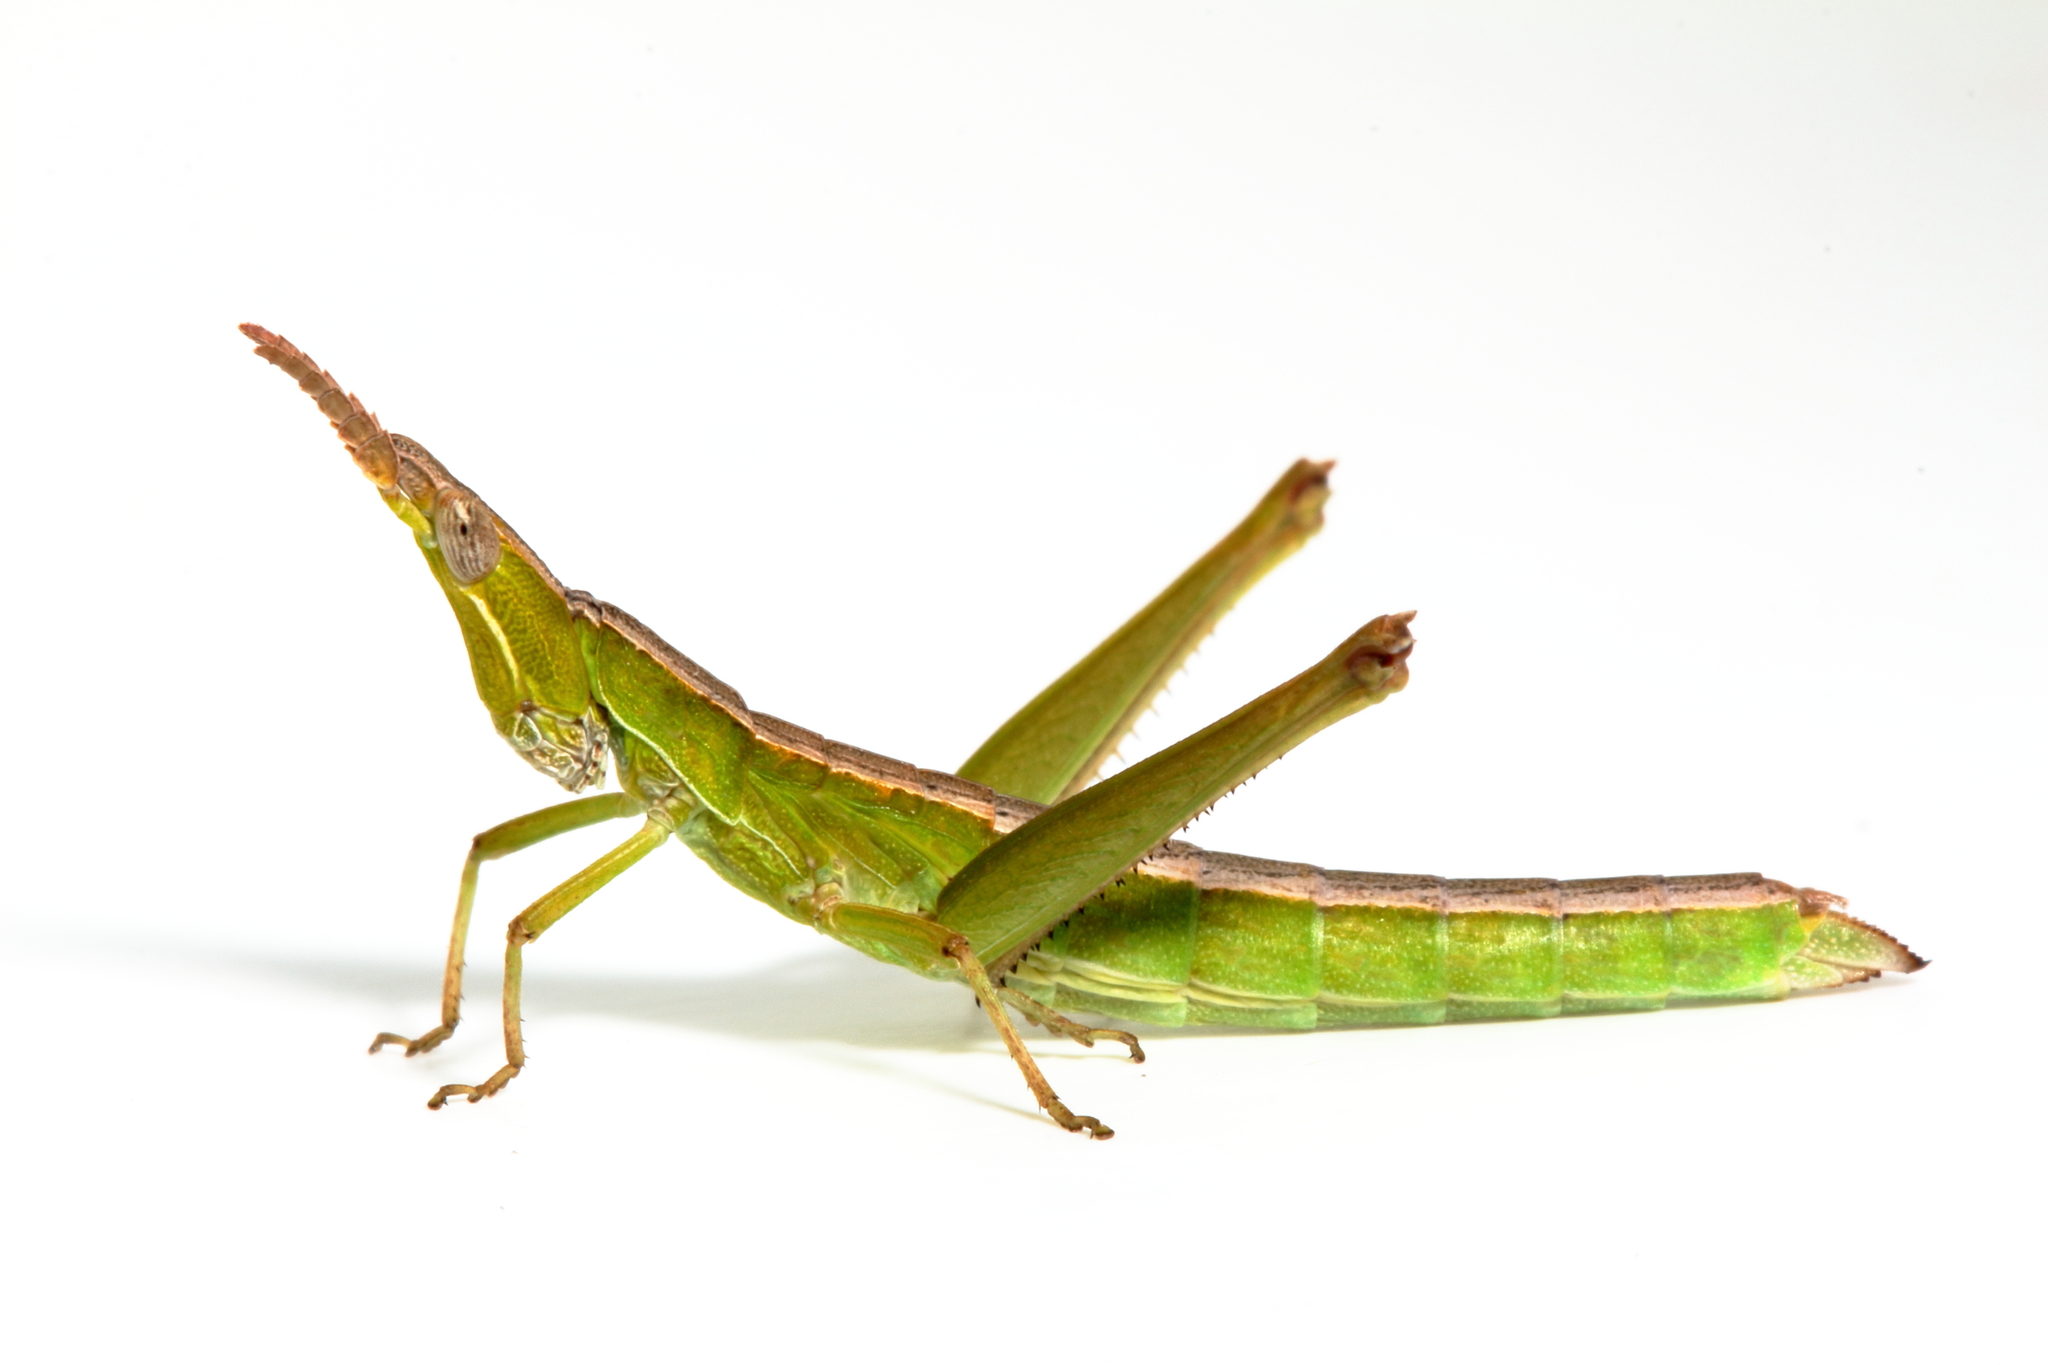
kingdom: Animalia
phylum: Arthropoda
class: Insecta
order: Orthoptera
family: Morabidae
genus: Keyacris
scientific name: Keyacris scurra
